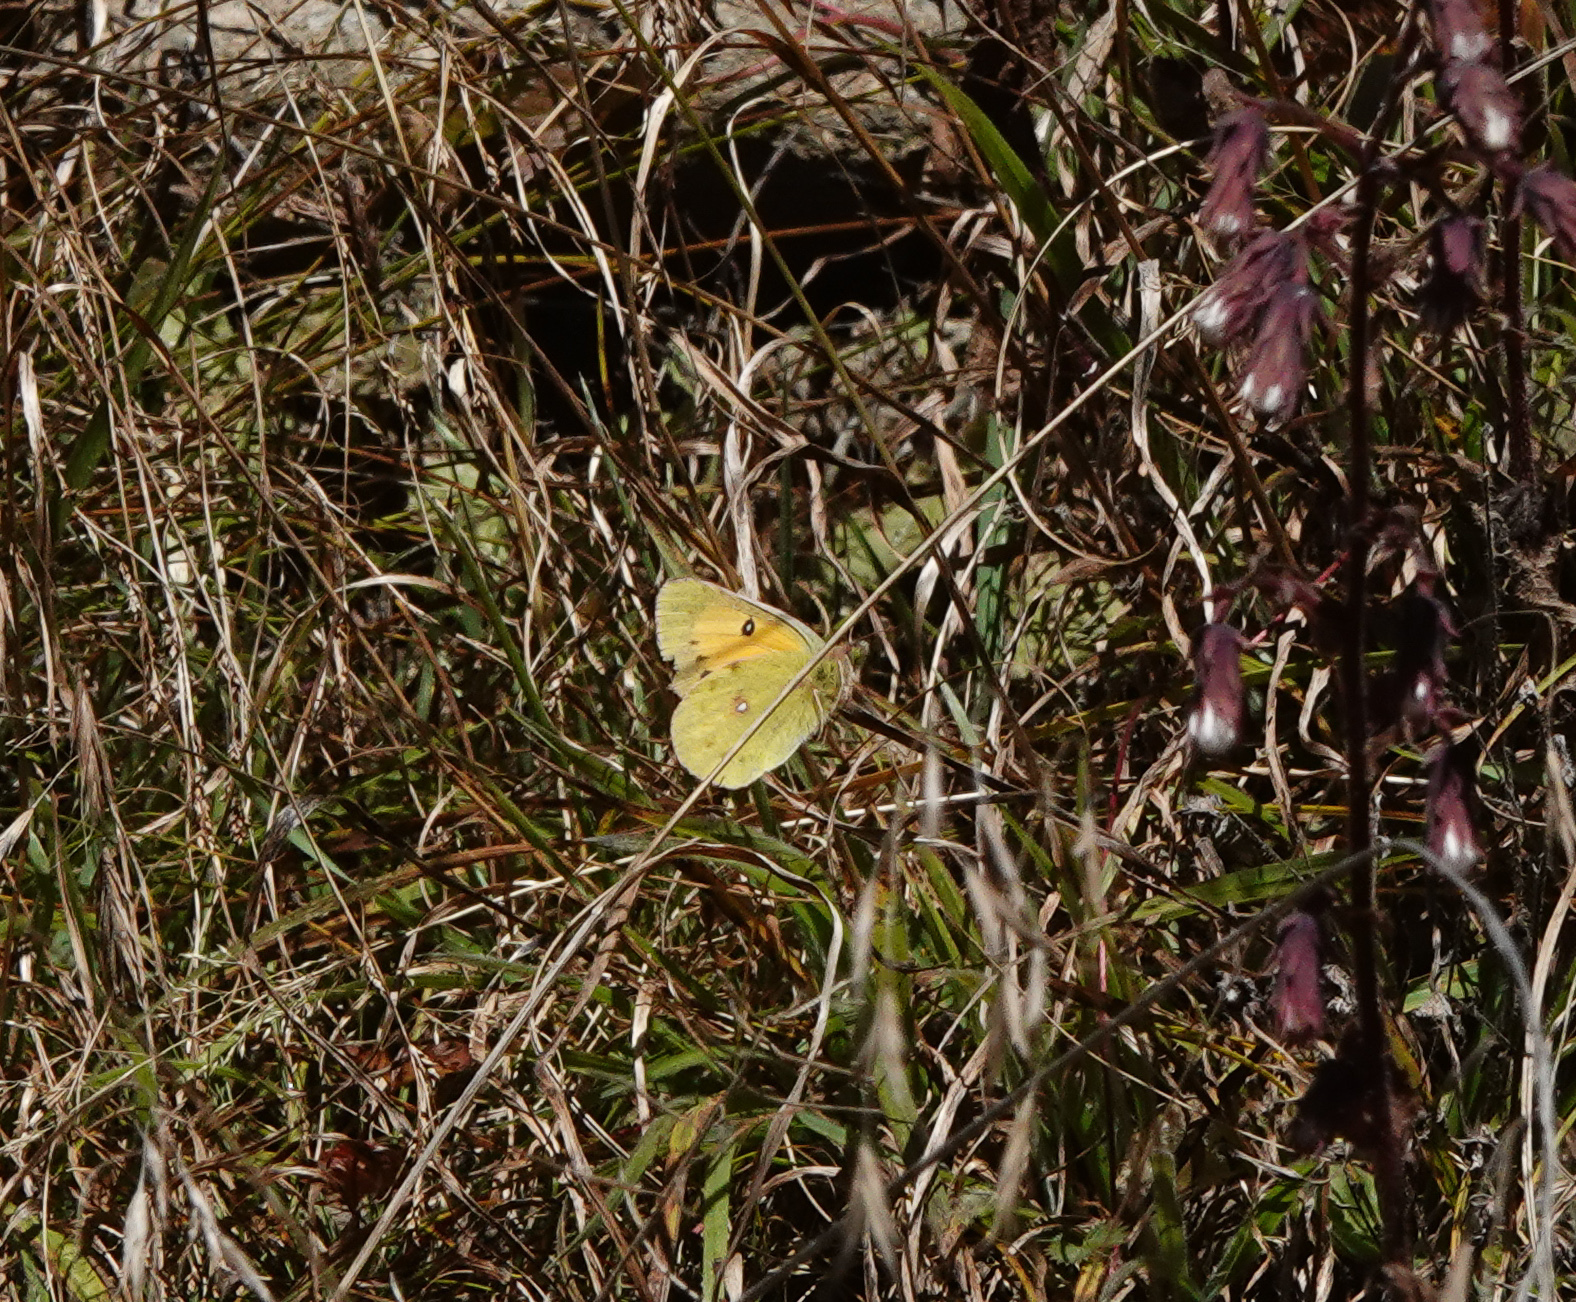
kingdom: Animalia
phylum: Arthropoda
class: Insecta
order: Lepidoptera
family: Pieridae
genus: Colias
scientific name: Colias fieldii
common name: Dark clouded yellow
